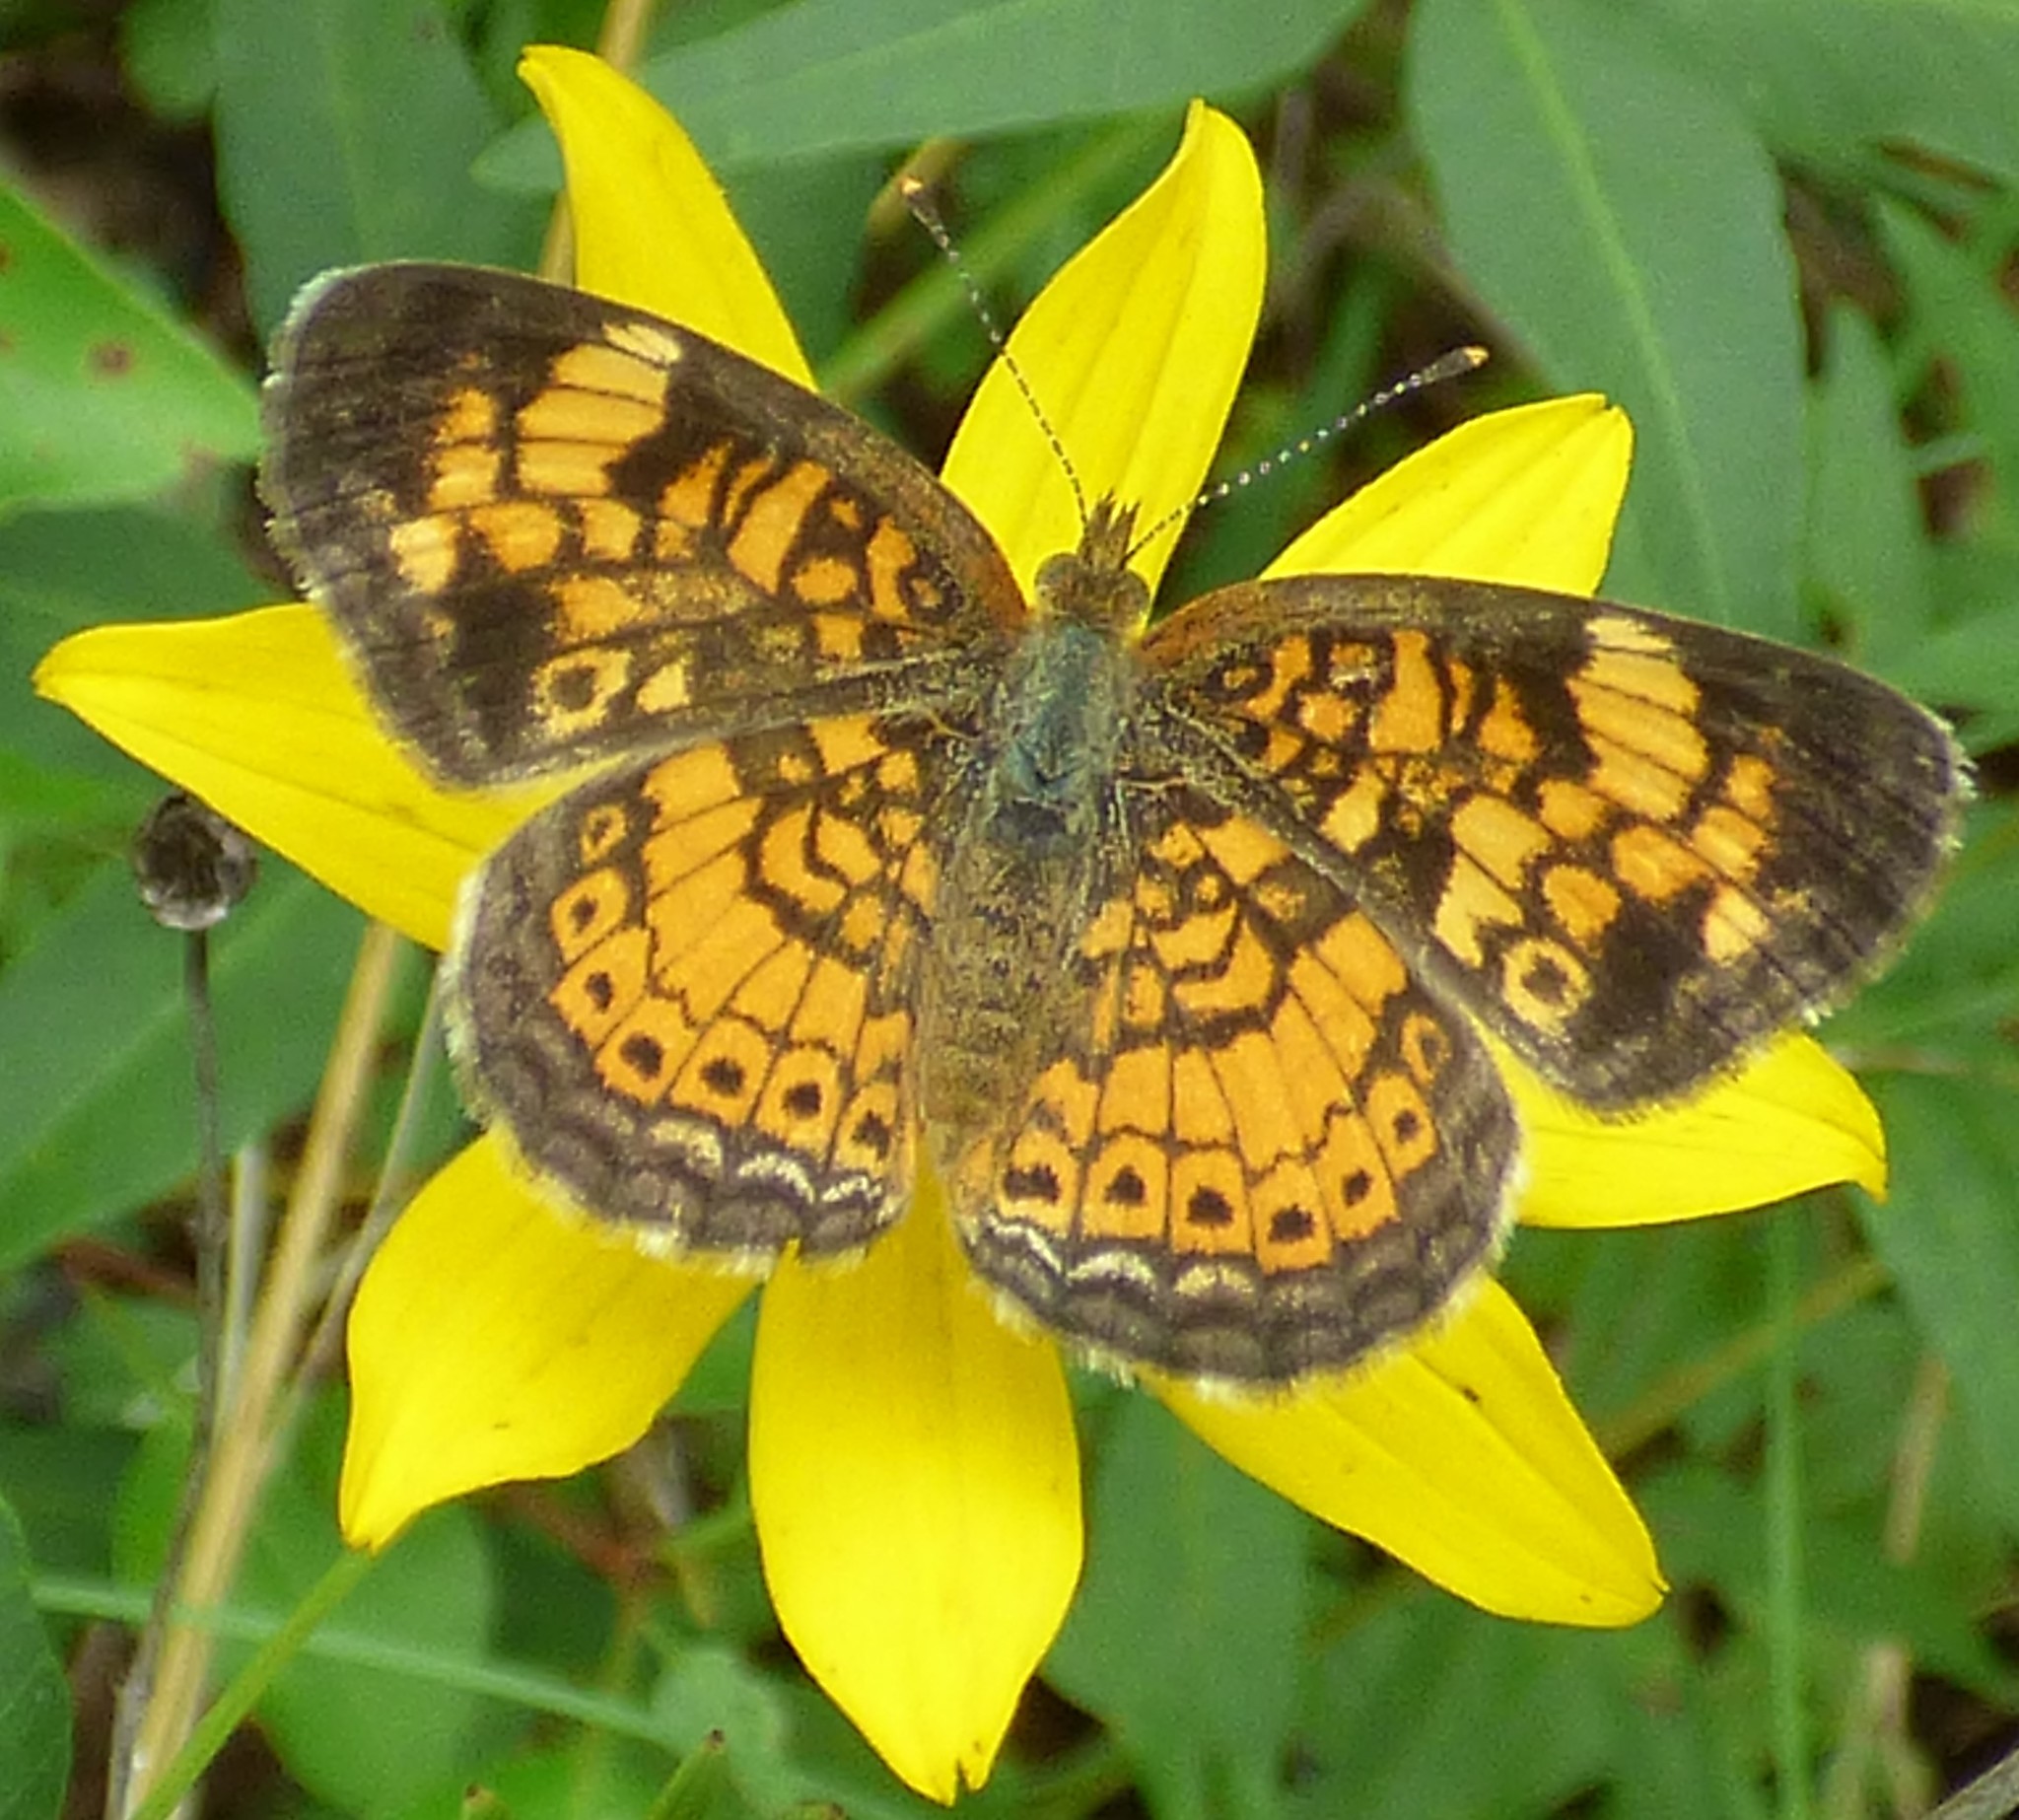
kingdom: Animalia
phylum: Arthropoda
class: Insecta
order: Lepidoptera
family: Nymphalidae
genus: Phyciodes
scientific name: Phyciodes tharos
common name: Pearl crescent
